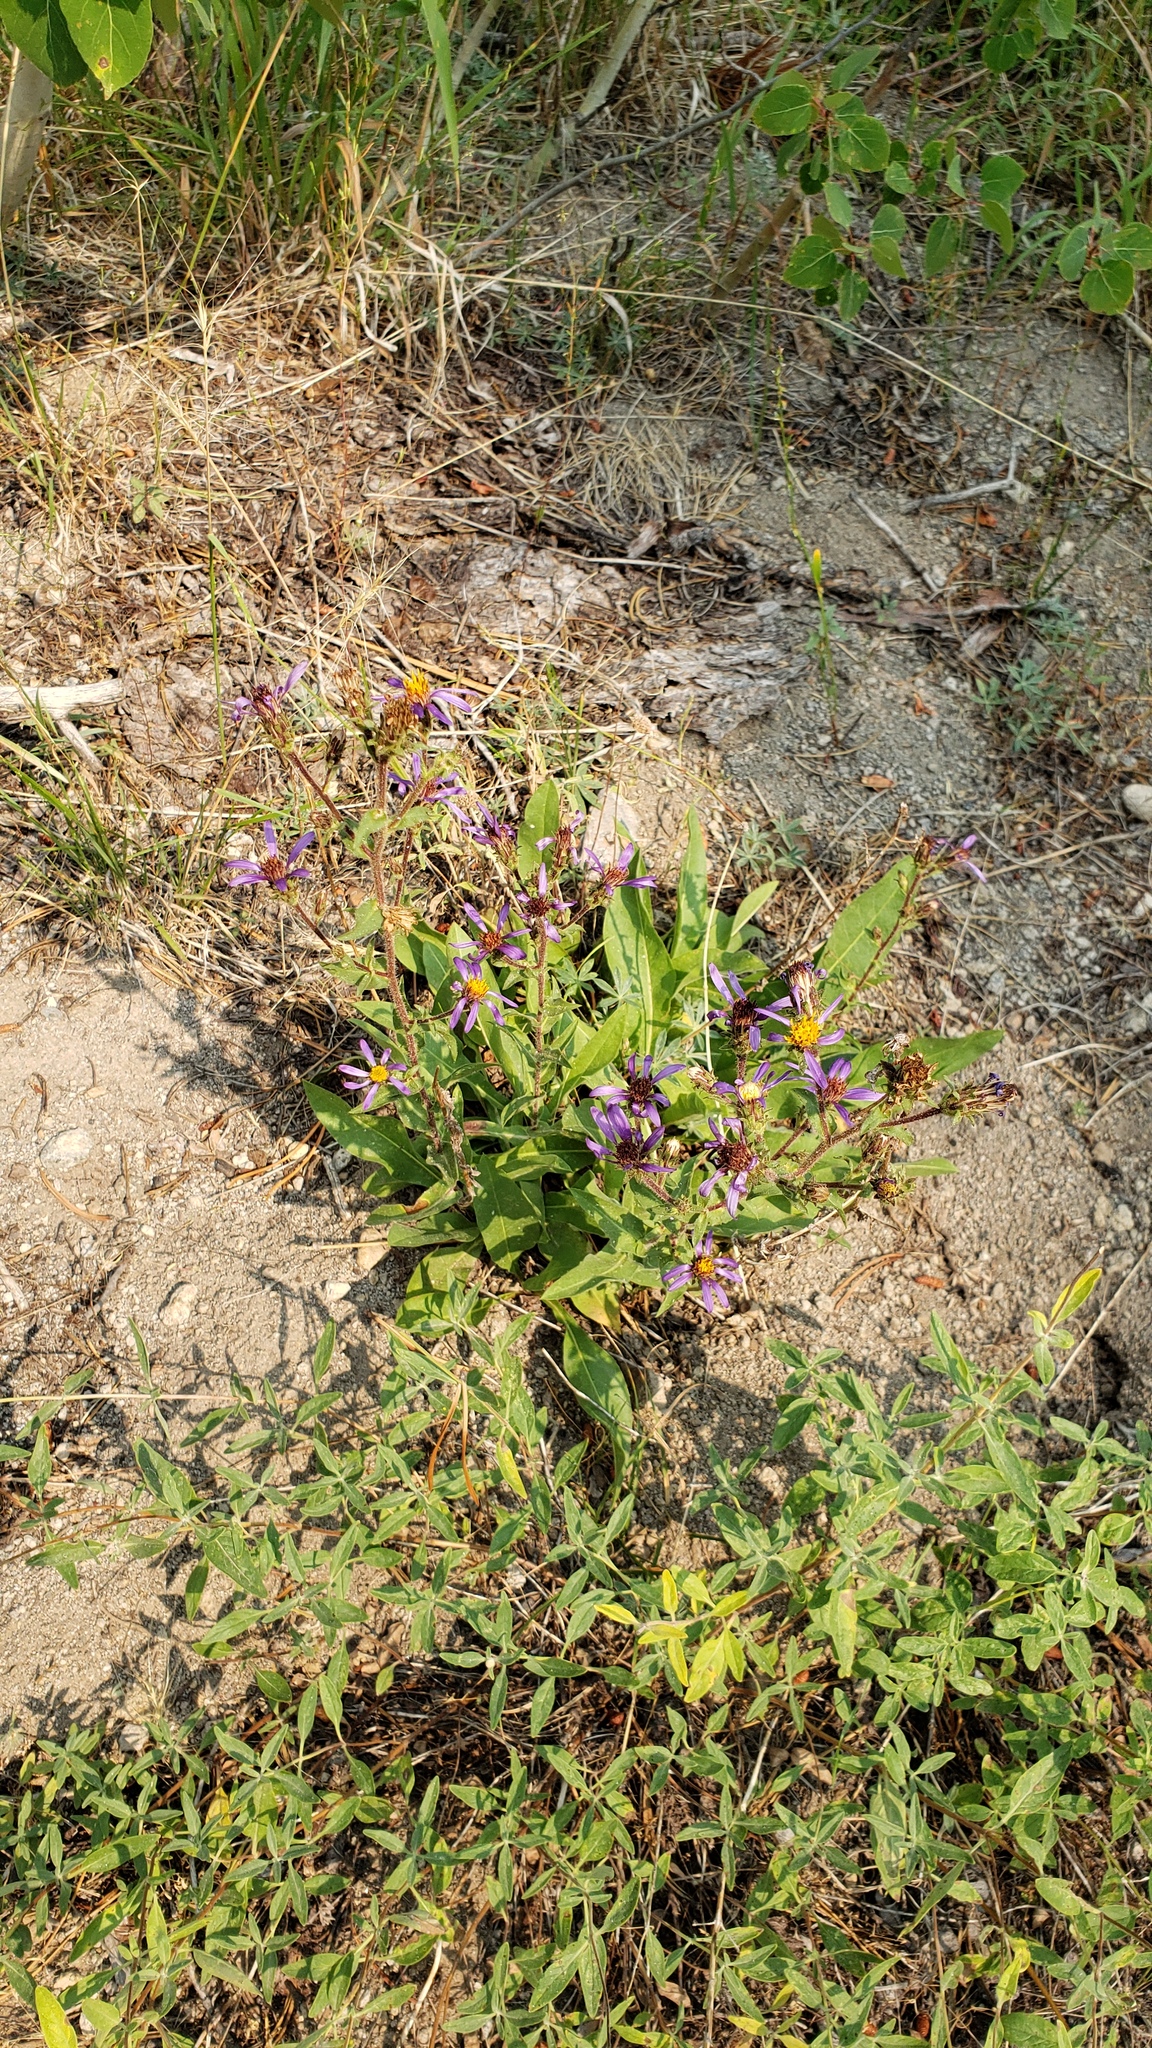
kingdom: Plantae
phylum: Tracheophyta
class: Magnoliopsida
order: Asterales
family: Asteraceae
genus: Eurybia
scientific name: Eurybia integrifolia
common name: Thick-stem aster
